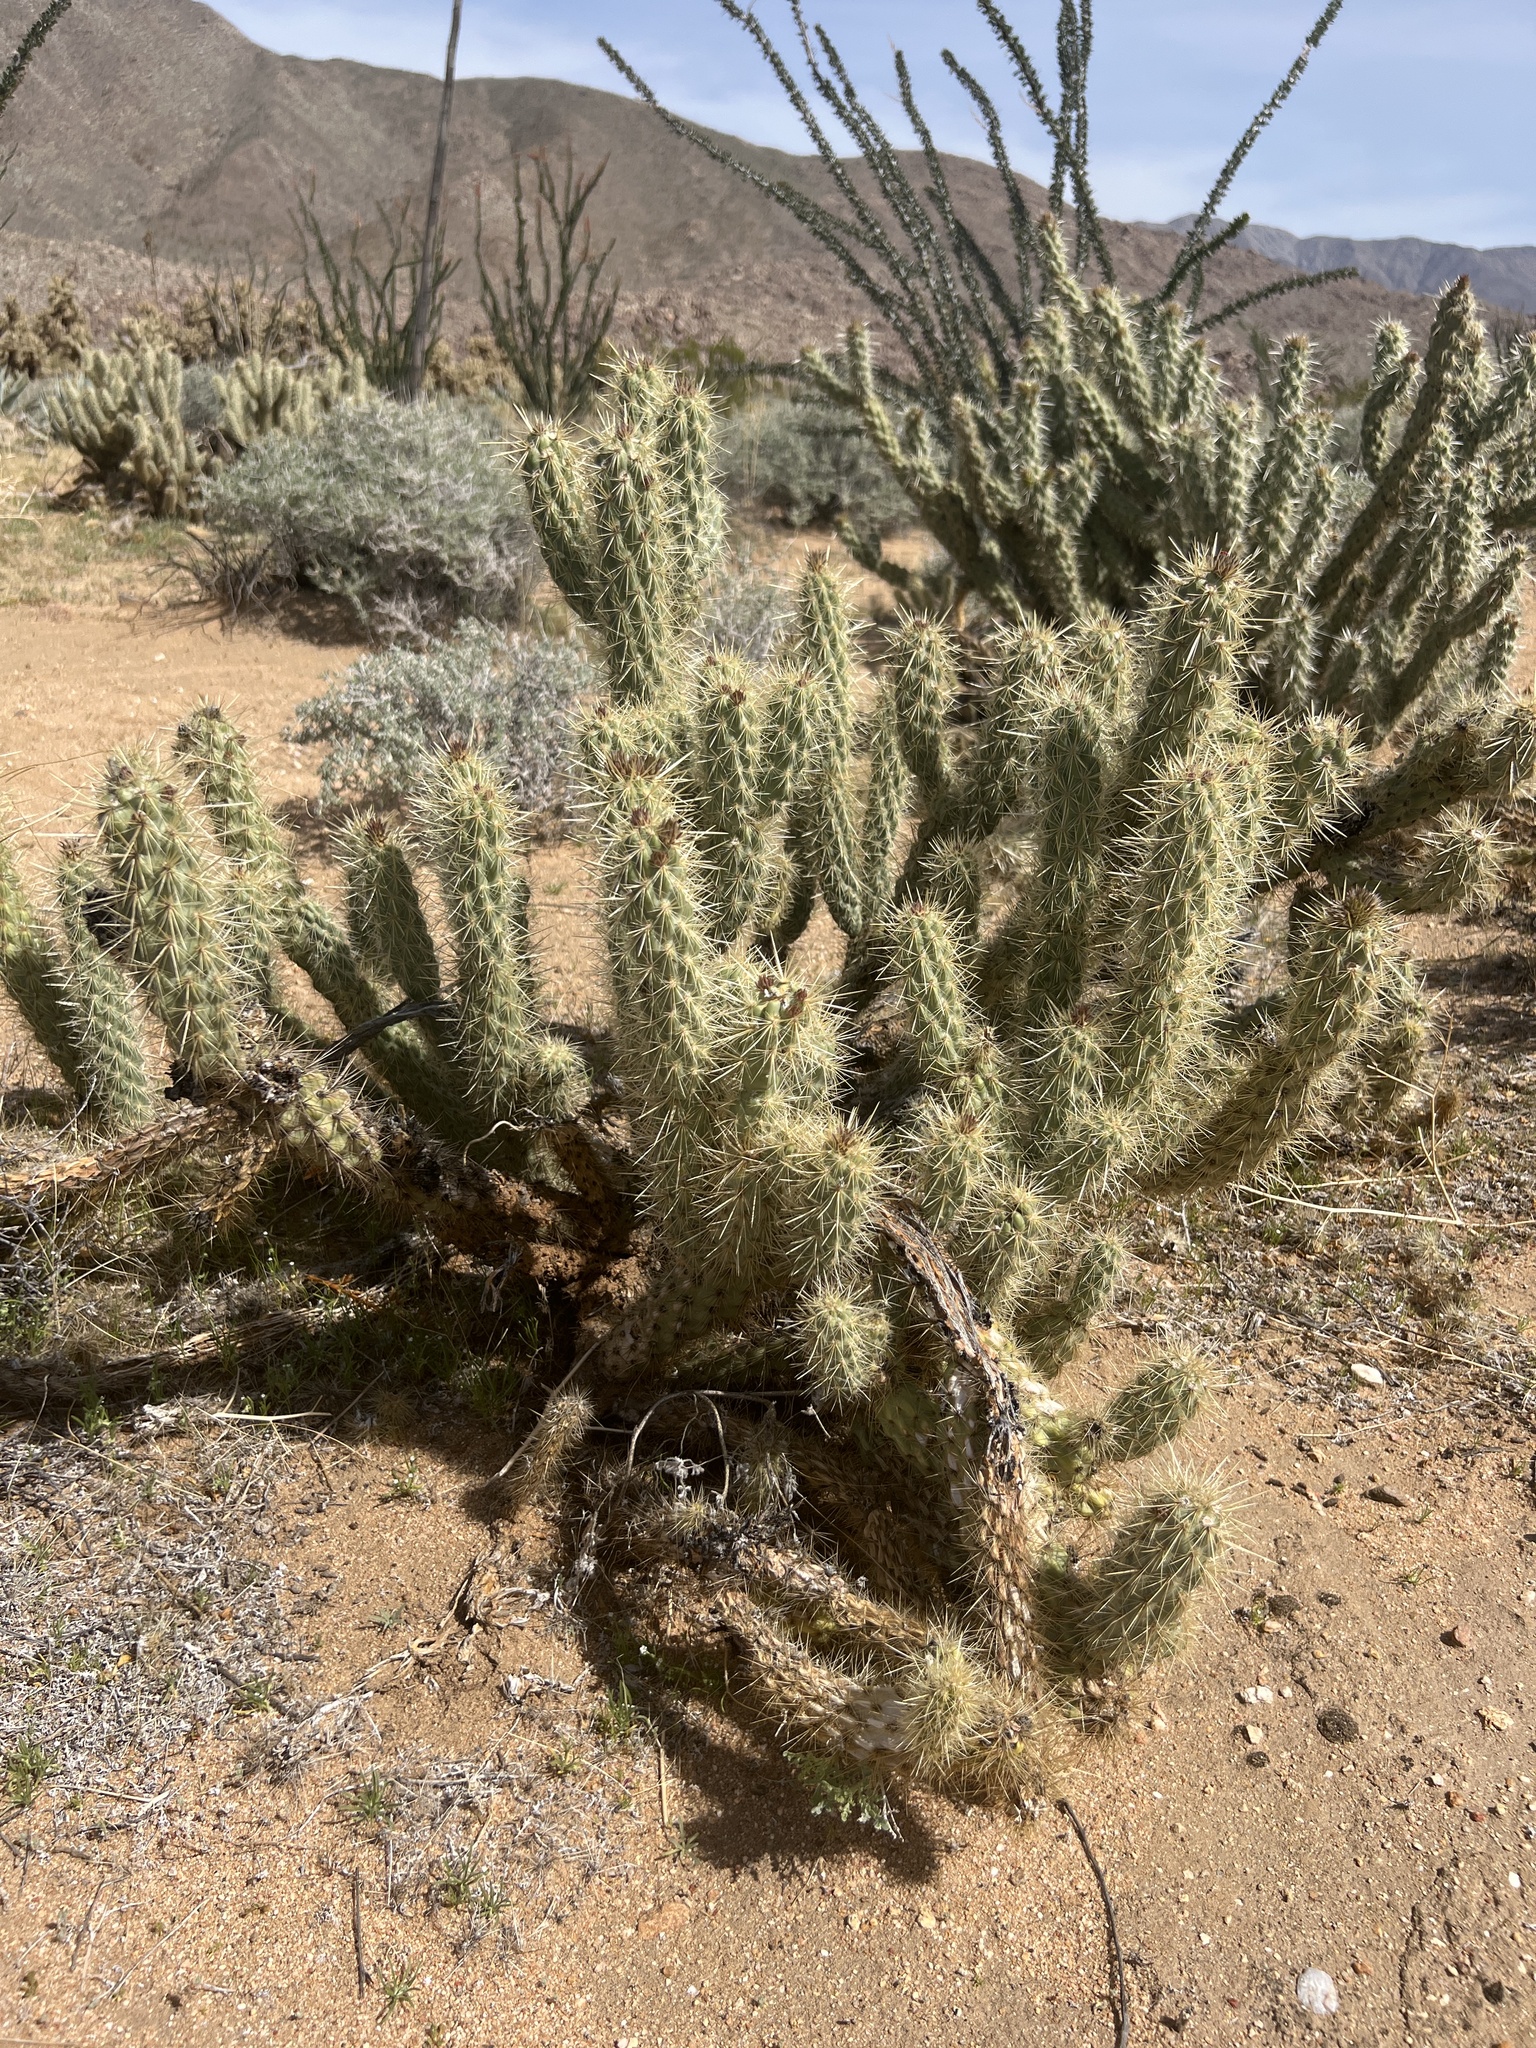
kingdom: Plantae
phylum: Tracheophyta
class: Magnoliopsida
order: Caryophyllales
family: Cactaceae
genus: Cylindropuntia
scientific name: Cylindropuntia ganderi
